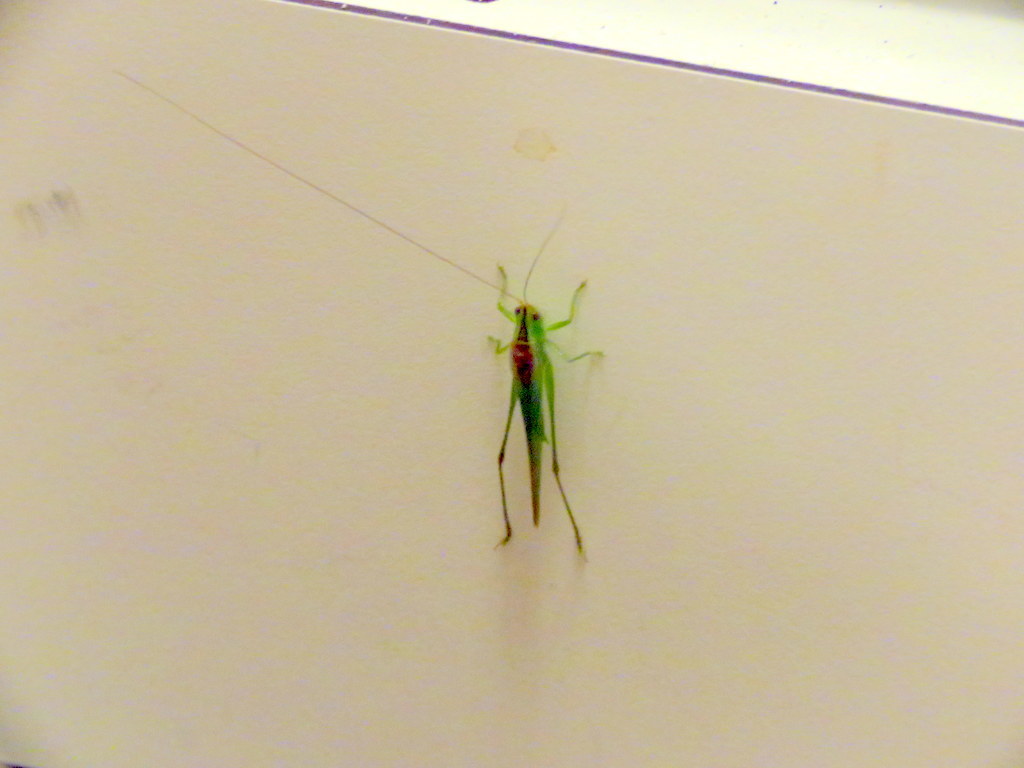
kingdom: Animalia
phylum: Arthropoda
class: Insecta
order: Orthoptera
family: Tettigoniidae
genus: Conocephalus
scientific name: Conocephalus longipes
